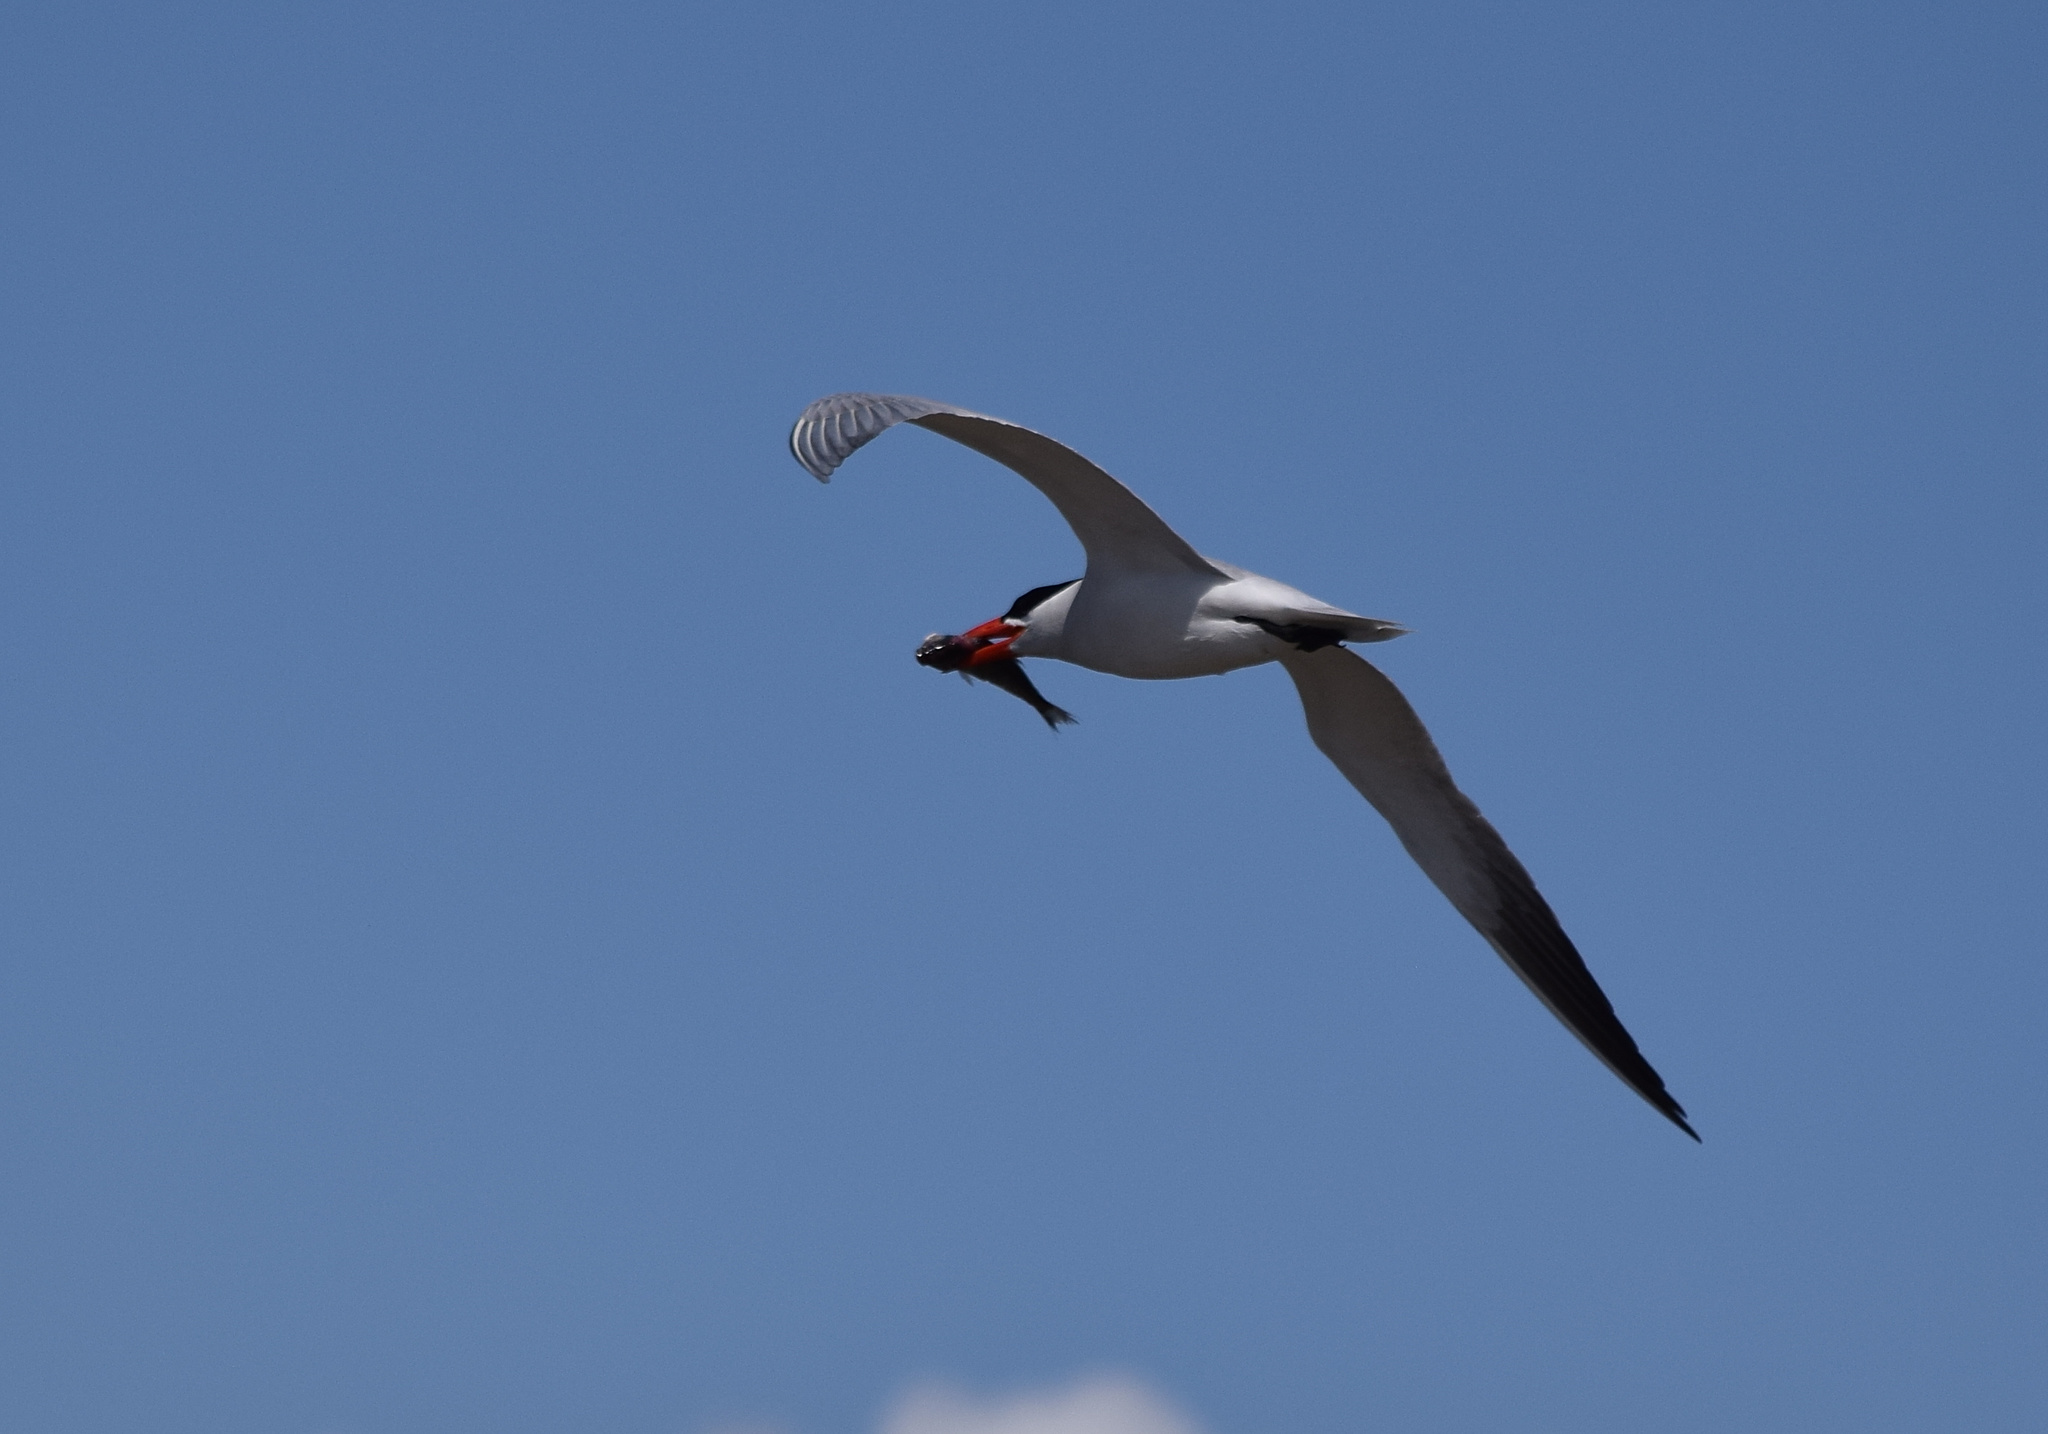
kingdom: Animalia
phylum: Chordata
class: Aves
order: Charadriiformes
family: Laridae
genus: Hydroprogne
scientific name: Hydroprogne caspia
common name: Caspian tern
